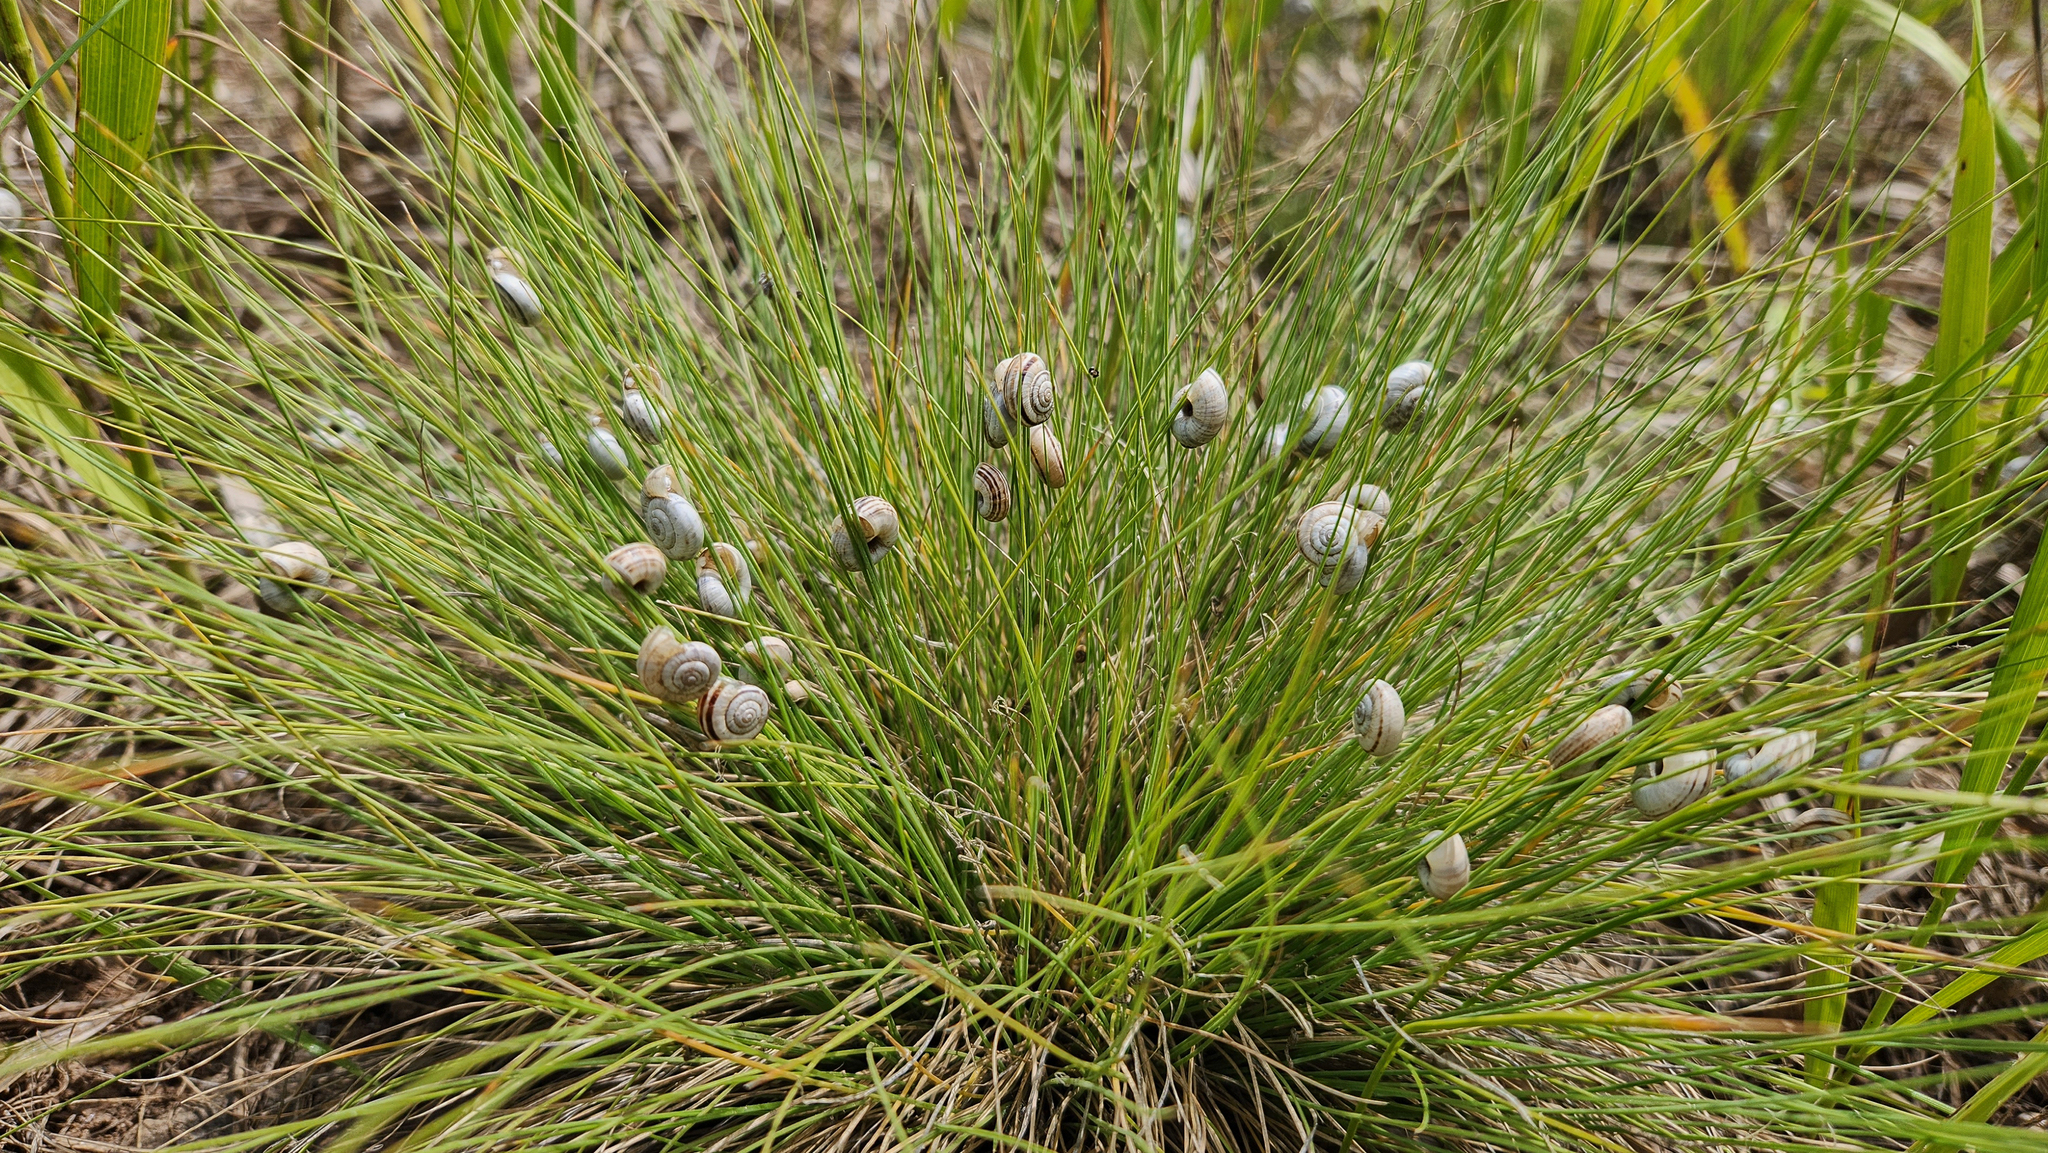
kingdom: Animalia
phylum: Mollusca
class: Gastropoda
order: Stylommatophora
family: Geomitridae
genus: Xerolenta
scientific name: Xerolenta obvia
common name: White heath snail
